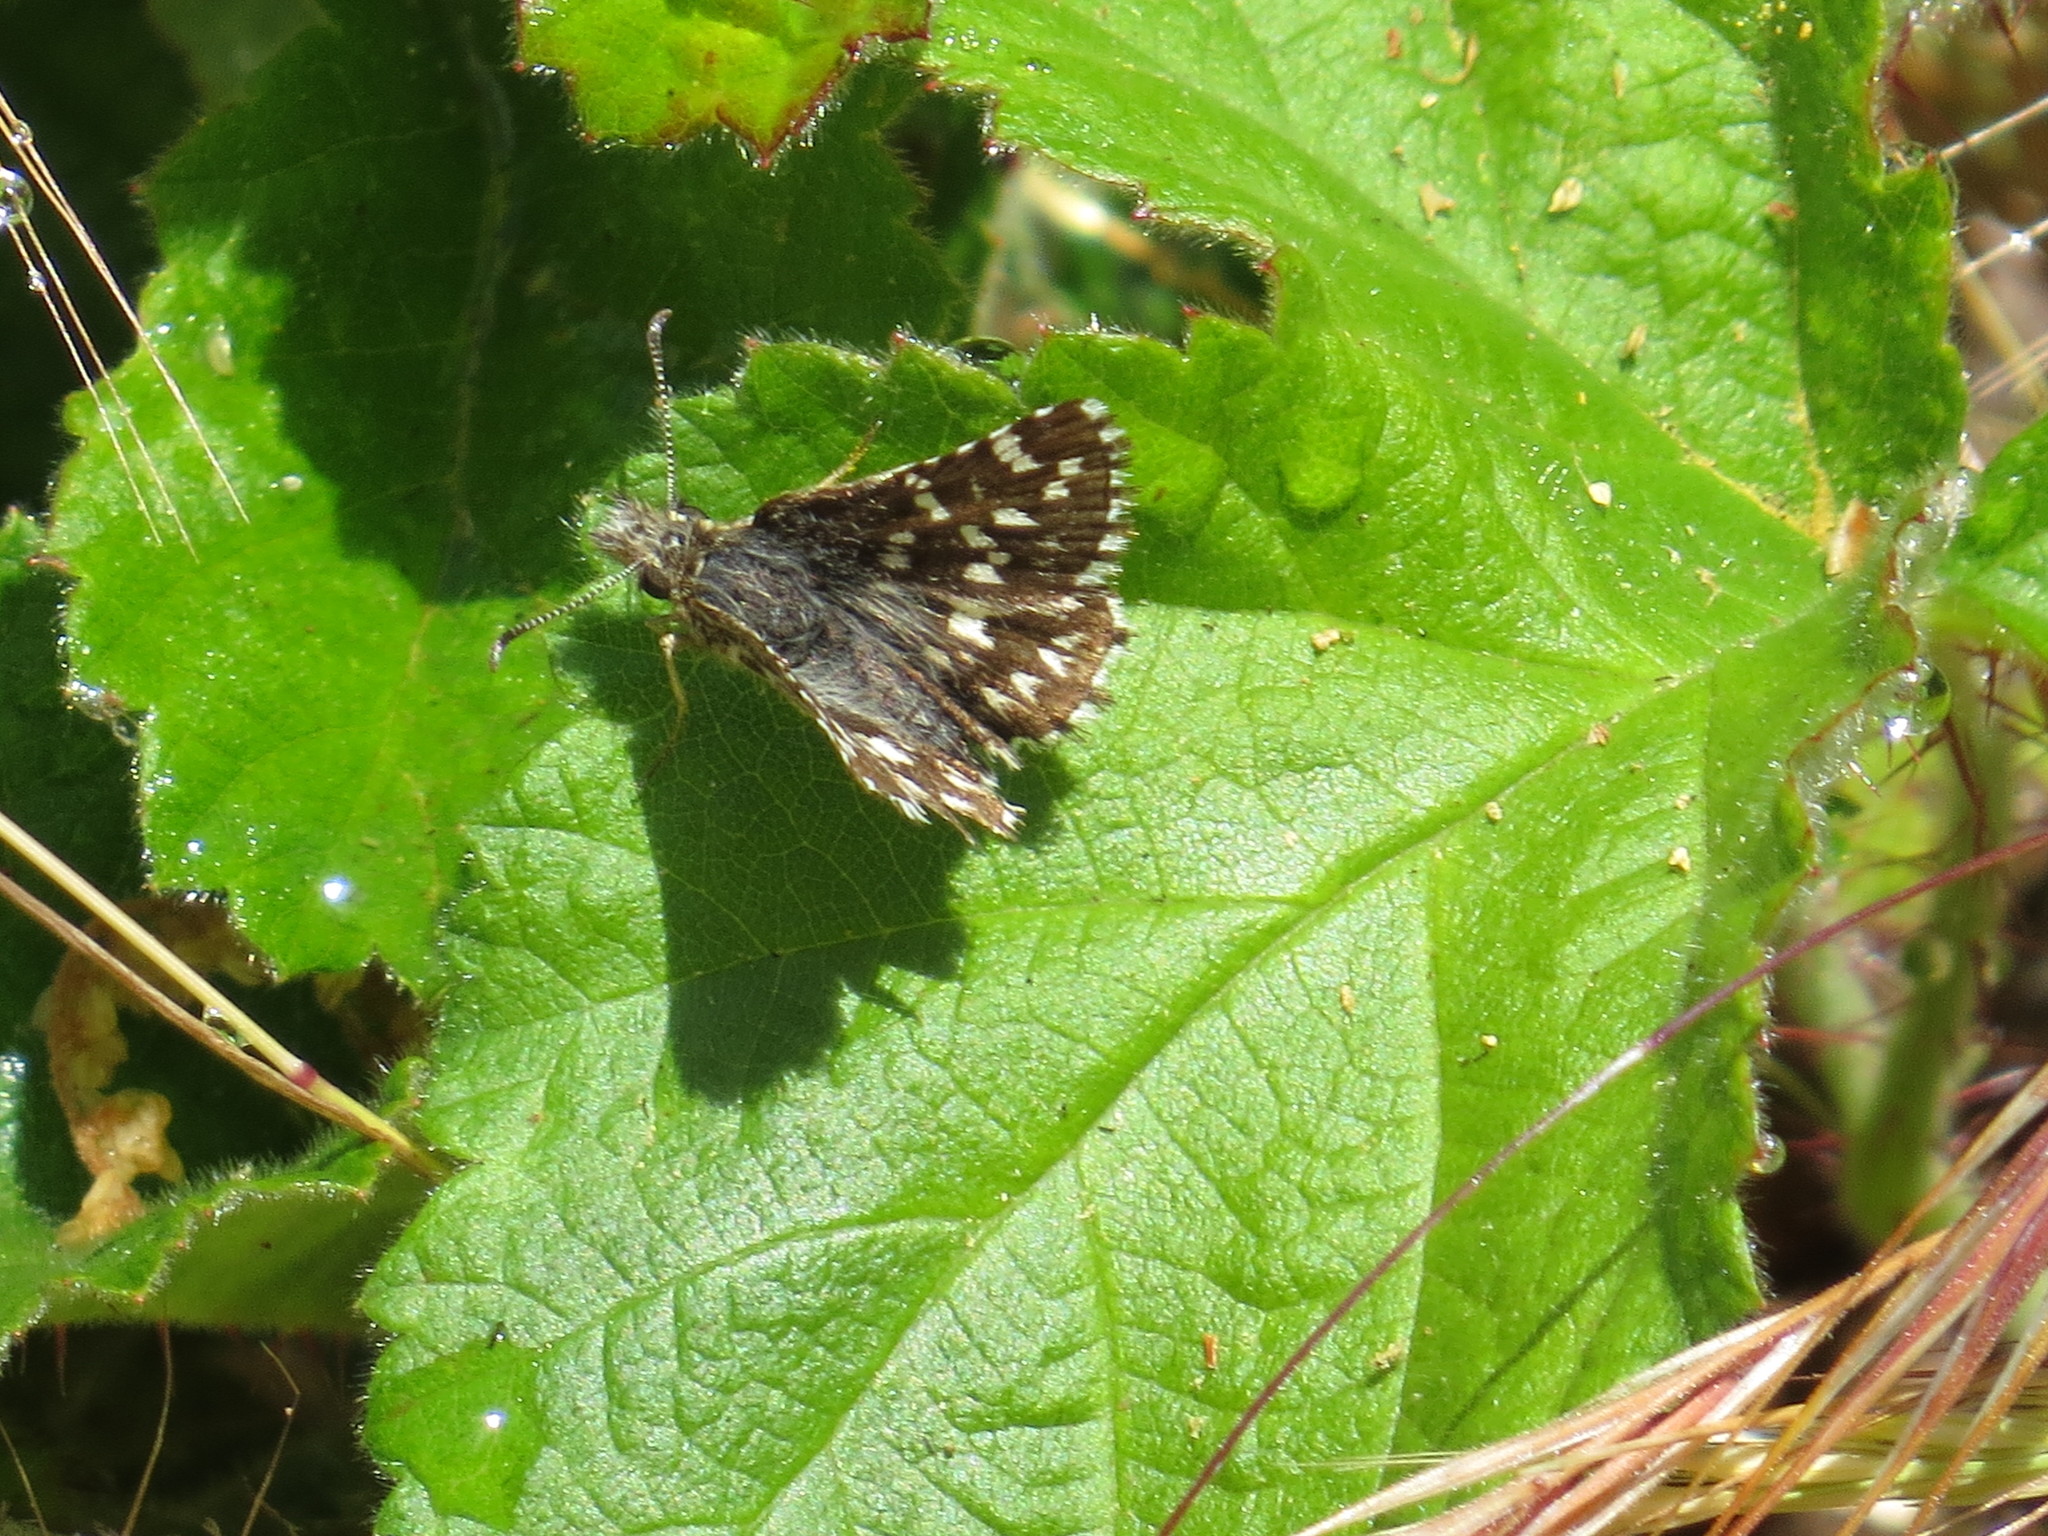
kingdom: Animalia
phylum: Arthropoda
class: Insecta
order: Lepidoptera
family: Hesperiidae
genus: Pyrgus
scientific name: Pyrgus ruralis
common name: Two-banded checkered-skipper
